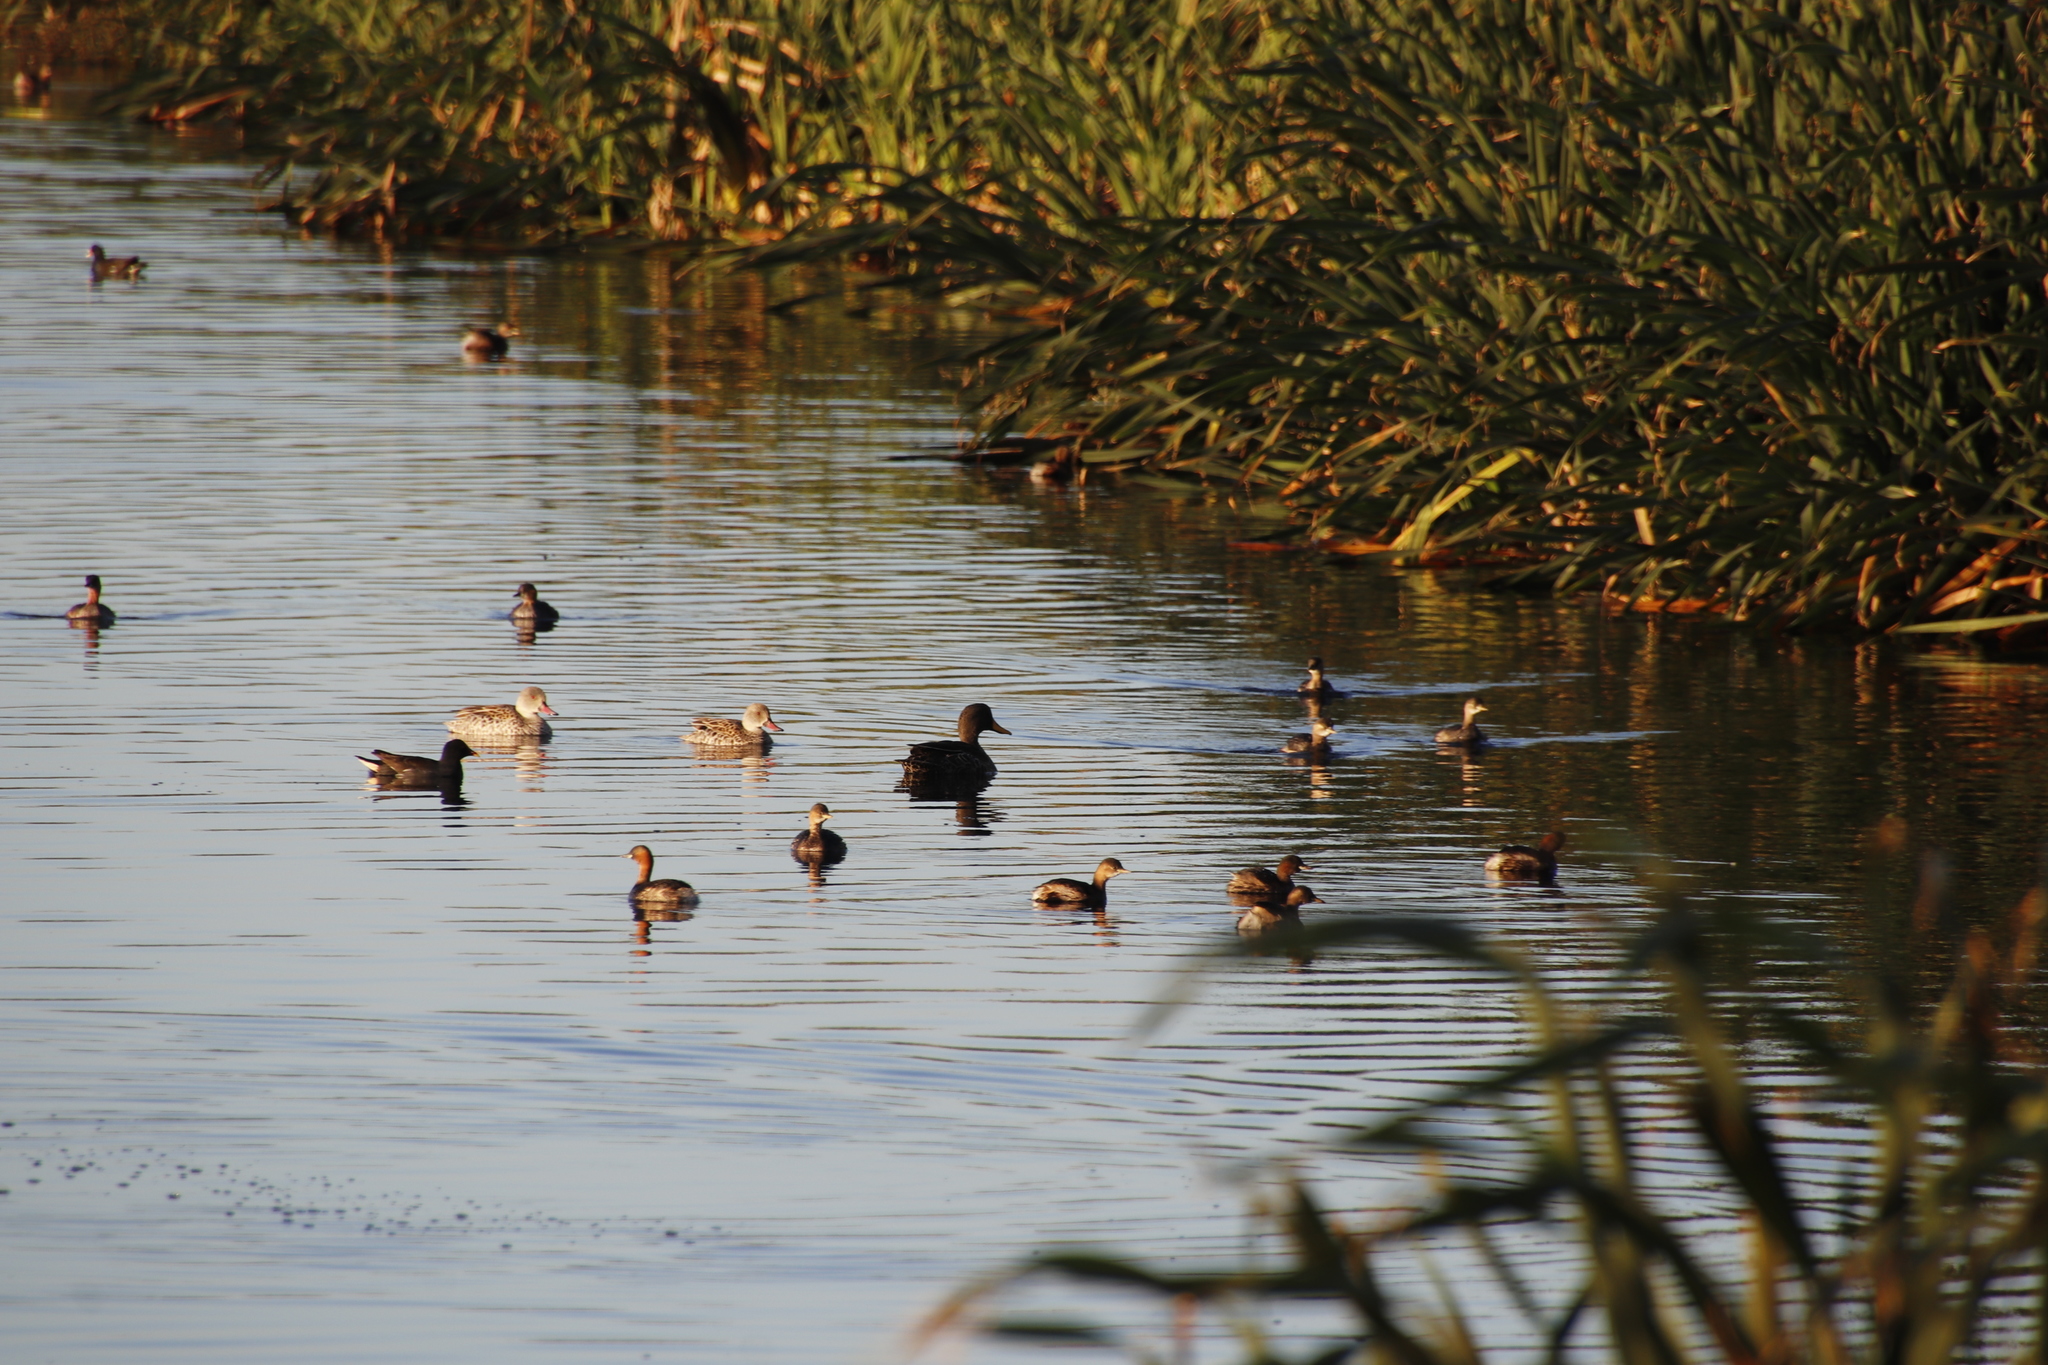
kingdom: Animalia
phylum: Chordata
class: Aves
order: Anseriformes
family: Anatidae
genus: Anas
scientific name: Anas capensis
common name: Cape teal
